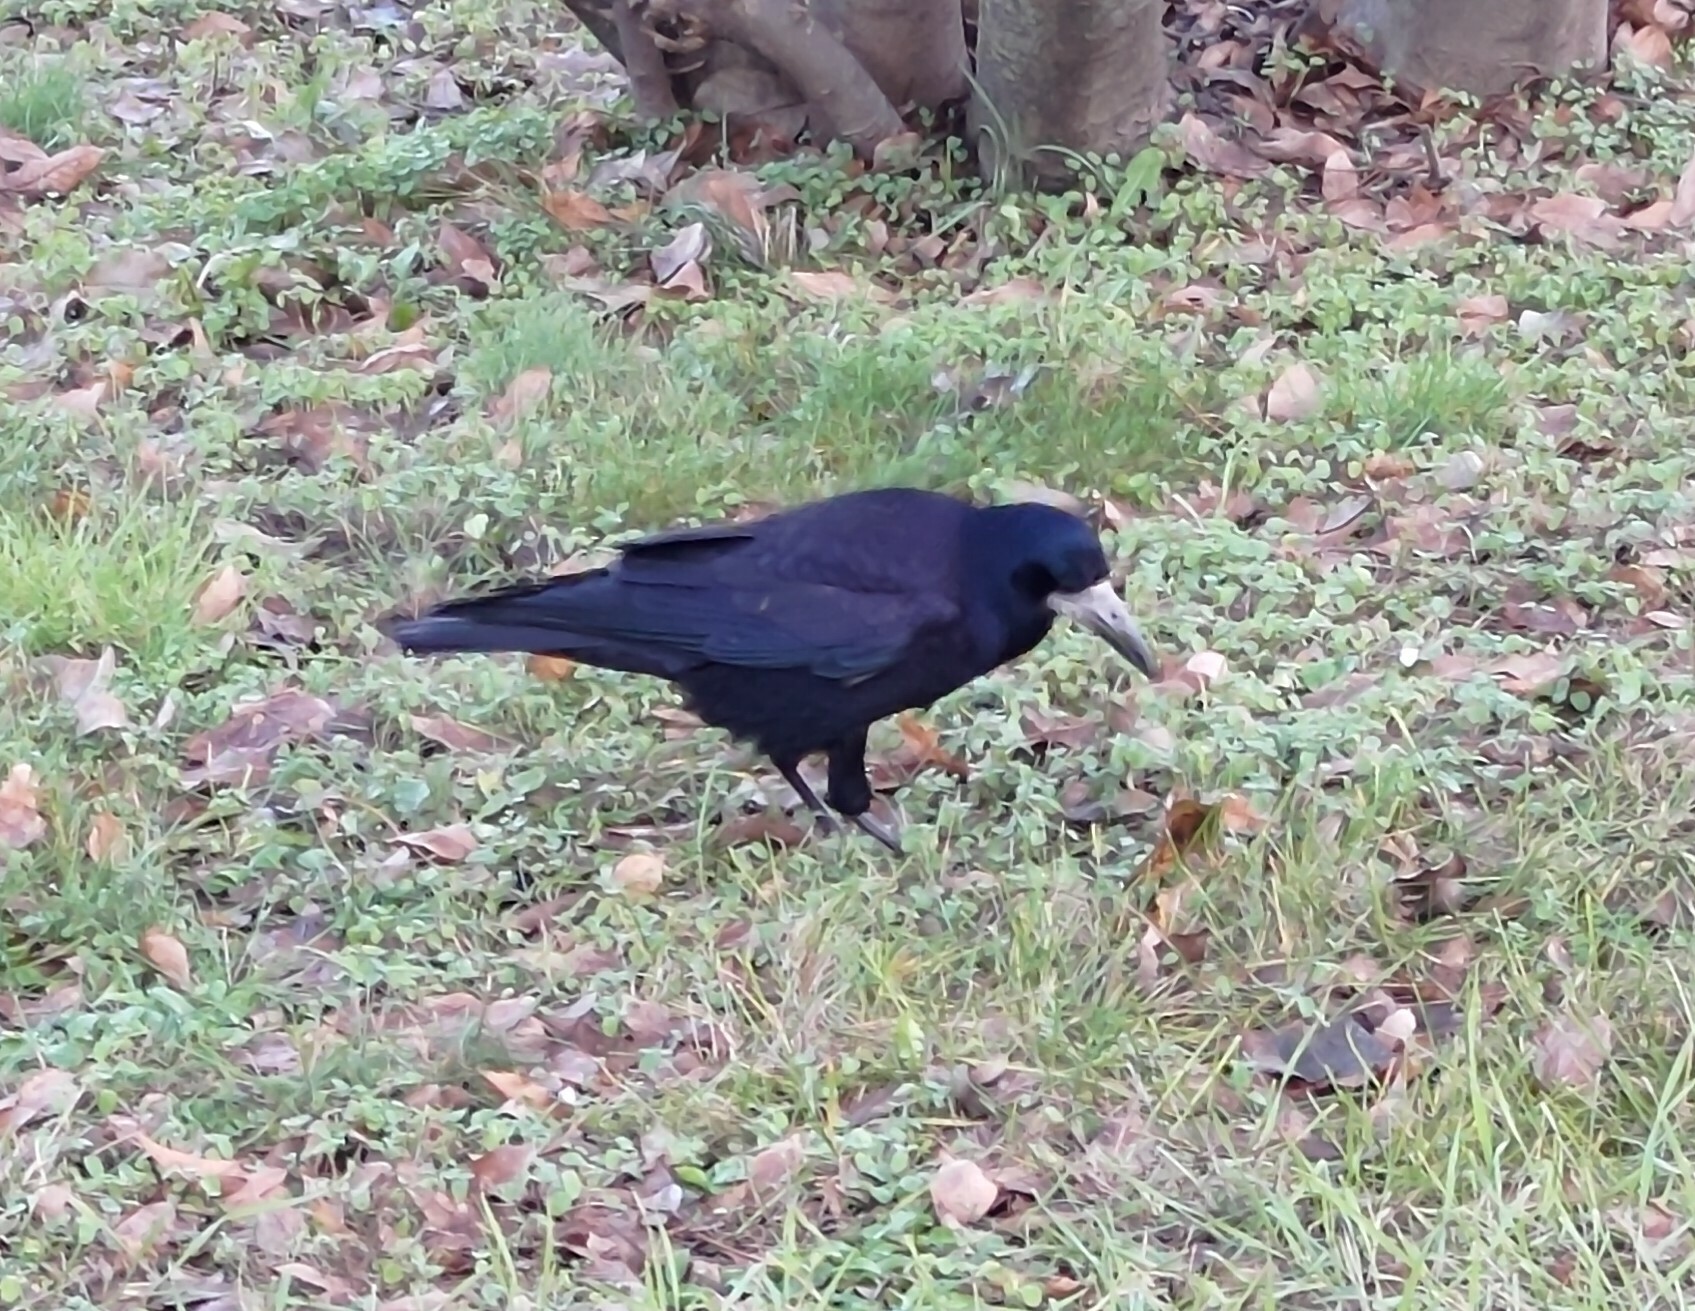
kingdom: Animalia
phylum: Chordata
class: Aves
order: Passeriformes
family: Corvidae
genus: Corvus
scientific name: Corvus frugilegus
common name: Rook
